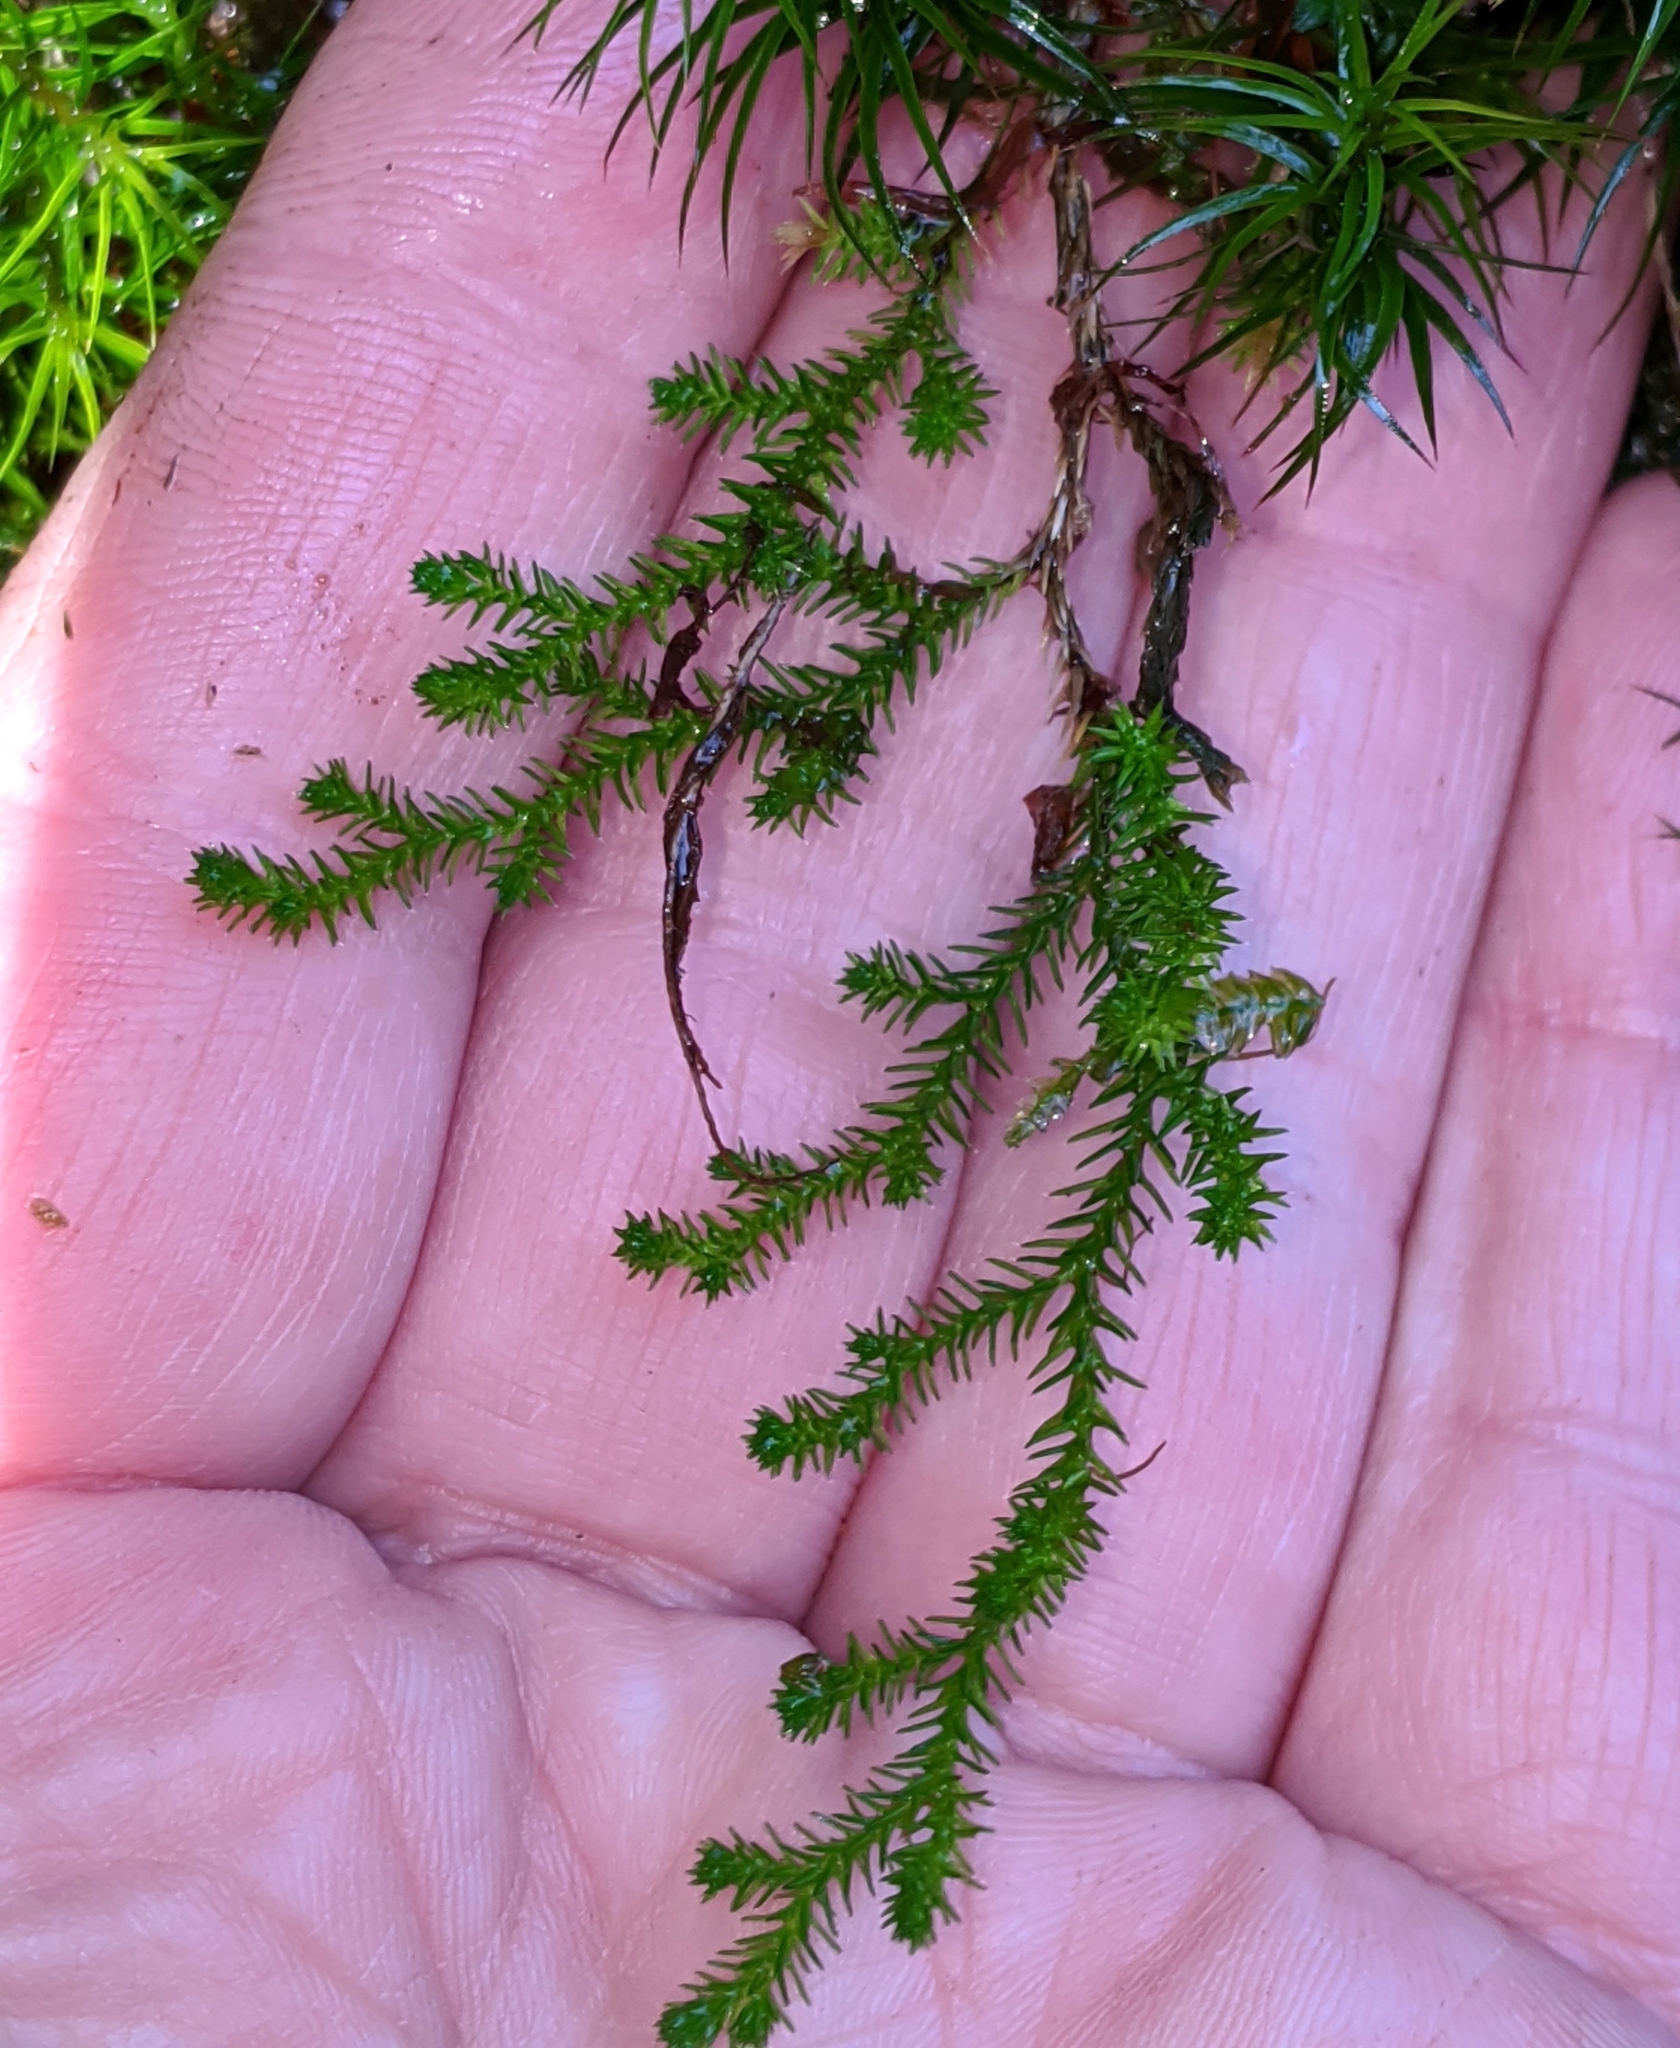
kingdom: Plantae
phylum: Tracheophyta
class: Lycopodiopsida
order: Selaginellales
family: Selaginellaceae
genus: Selaginella
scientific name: Selaginella wallacei
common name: Wallace's selaginella
